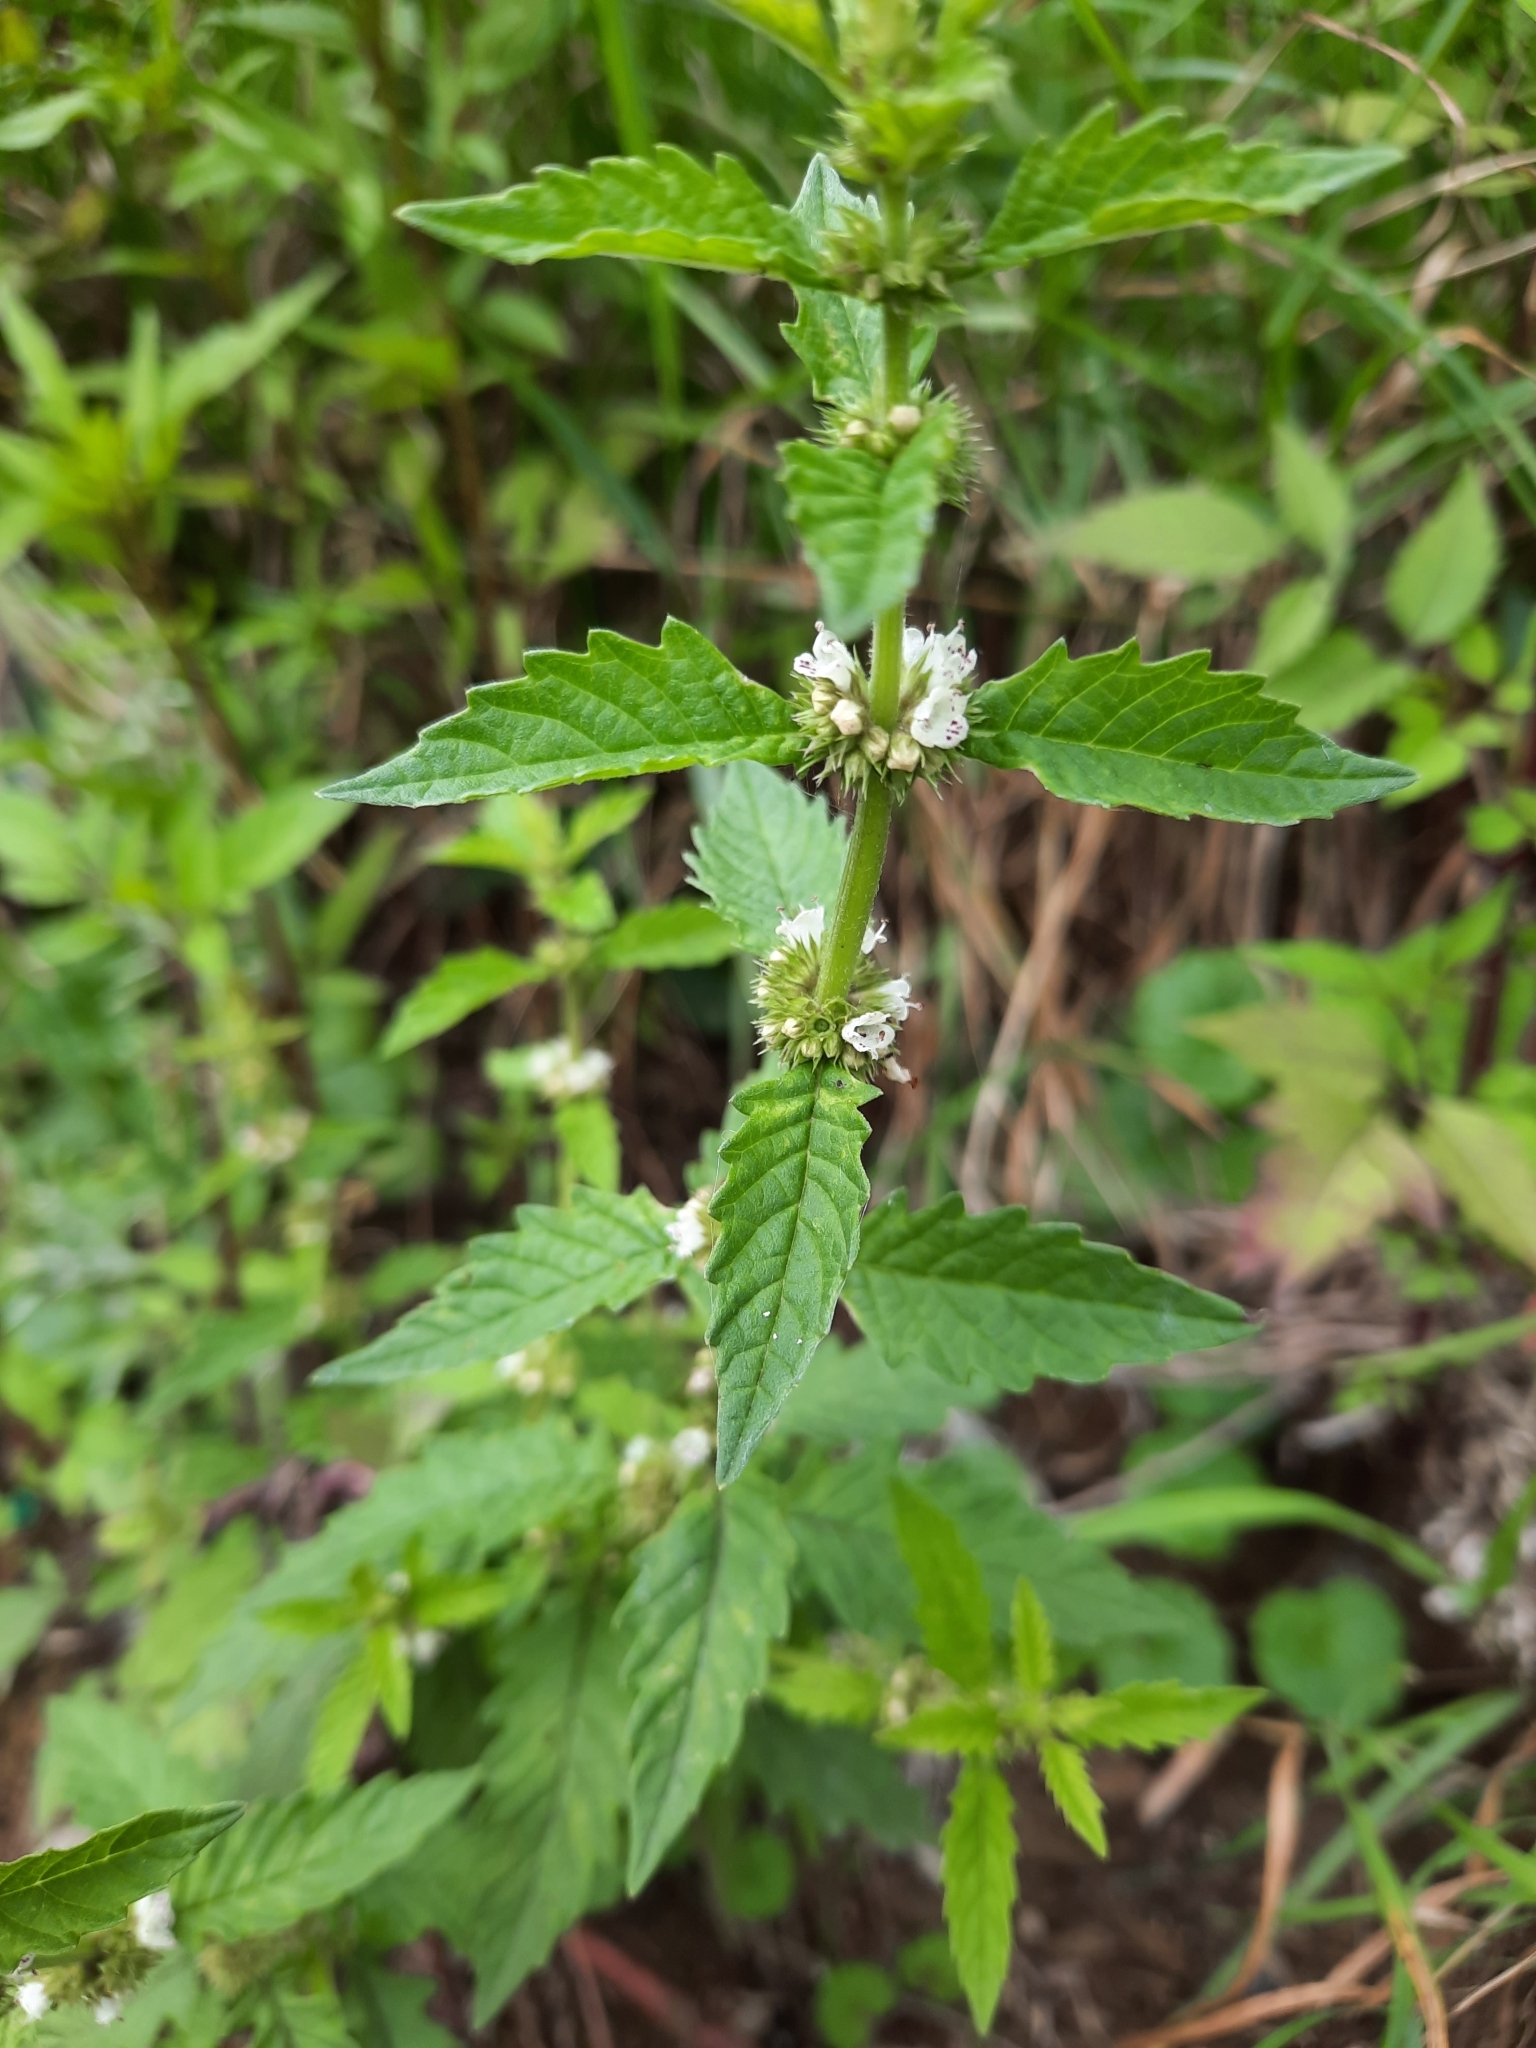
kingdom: Plantae
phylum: Tracheophyta
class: Magnoliopsida
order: Lamiales
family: Lamiaceae
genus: Lycopus
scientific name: Lycopus europaeus
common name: European bugleweed
